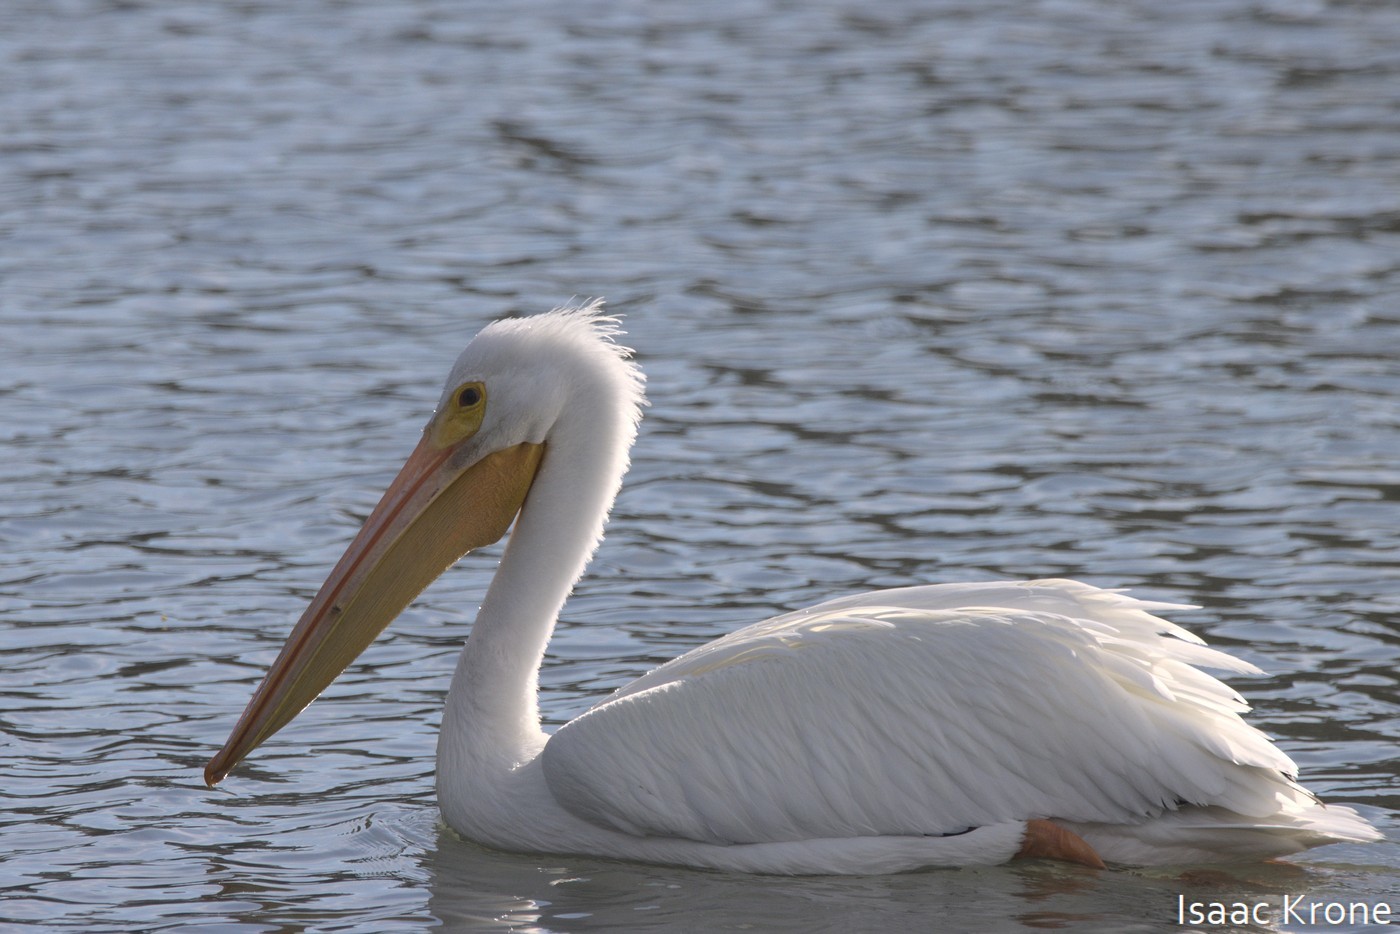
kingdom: Animalia
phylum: Chordata
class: Aves
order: Pelecaniformes
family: Pelecanidae
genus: Pelecanus
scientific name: Pelecanus erythrorhynchos
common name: American white pelican
